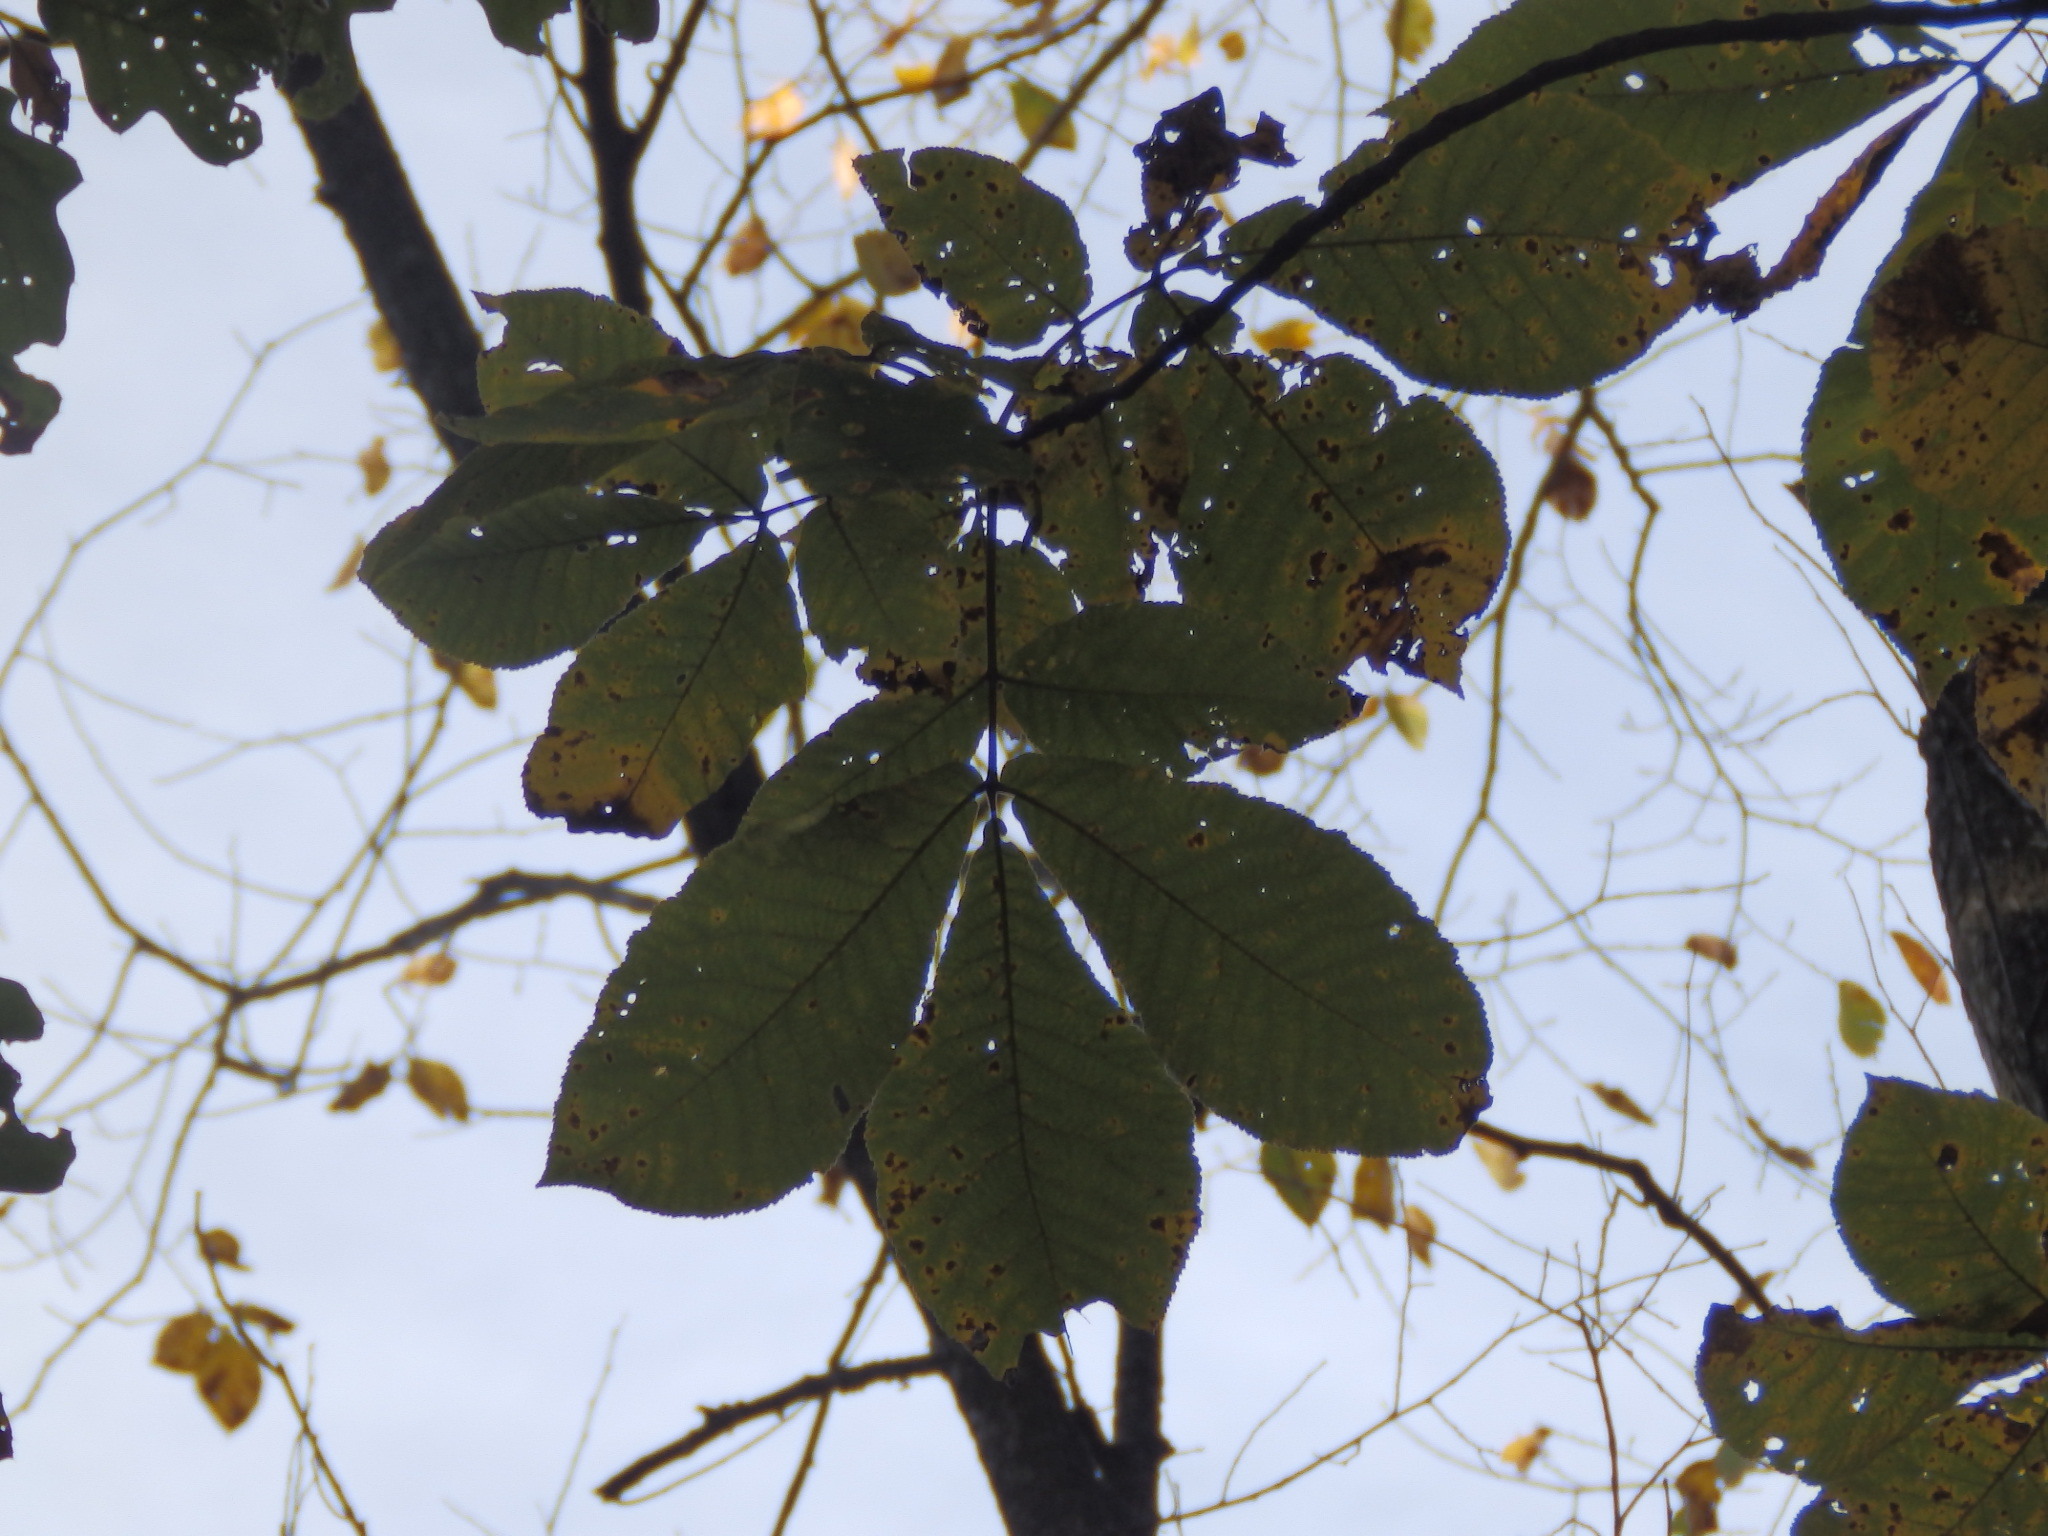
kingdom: Plantae
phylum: Tracheophyta
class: Magnoliopsida
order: Fagales
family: Juglandaceae
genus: Carya
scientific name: Carya ovata
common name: Shagbark hickory
